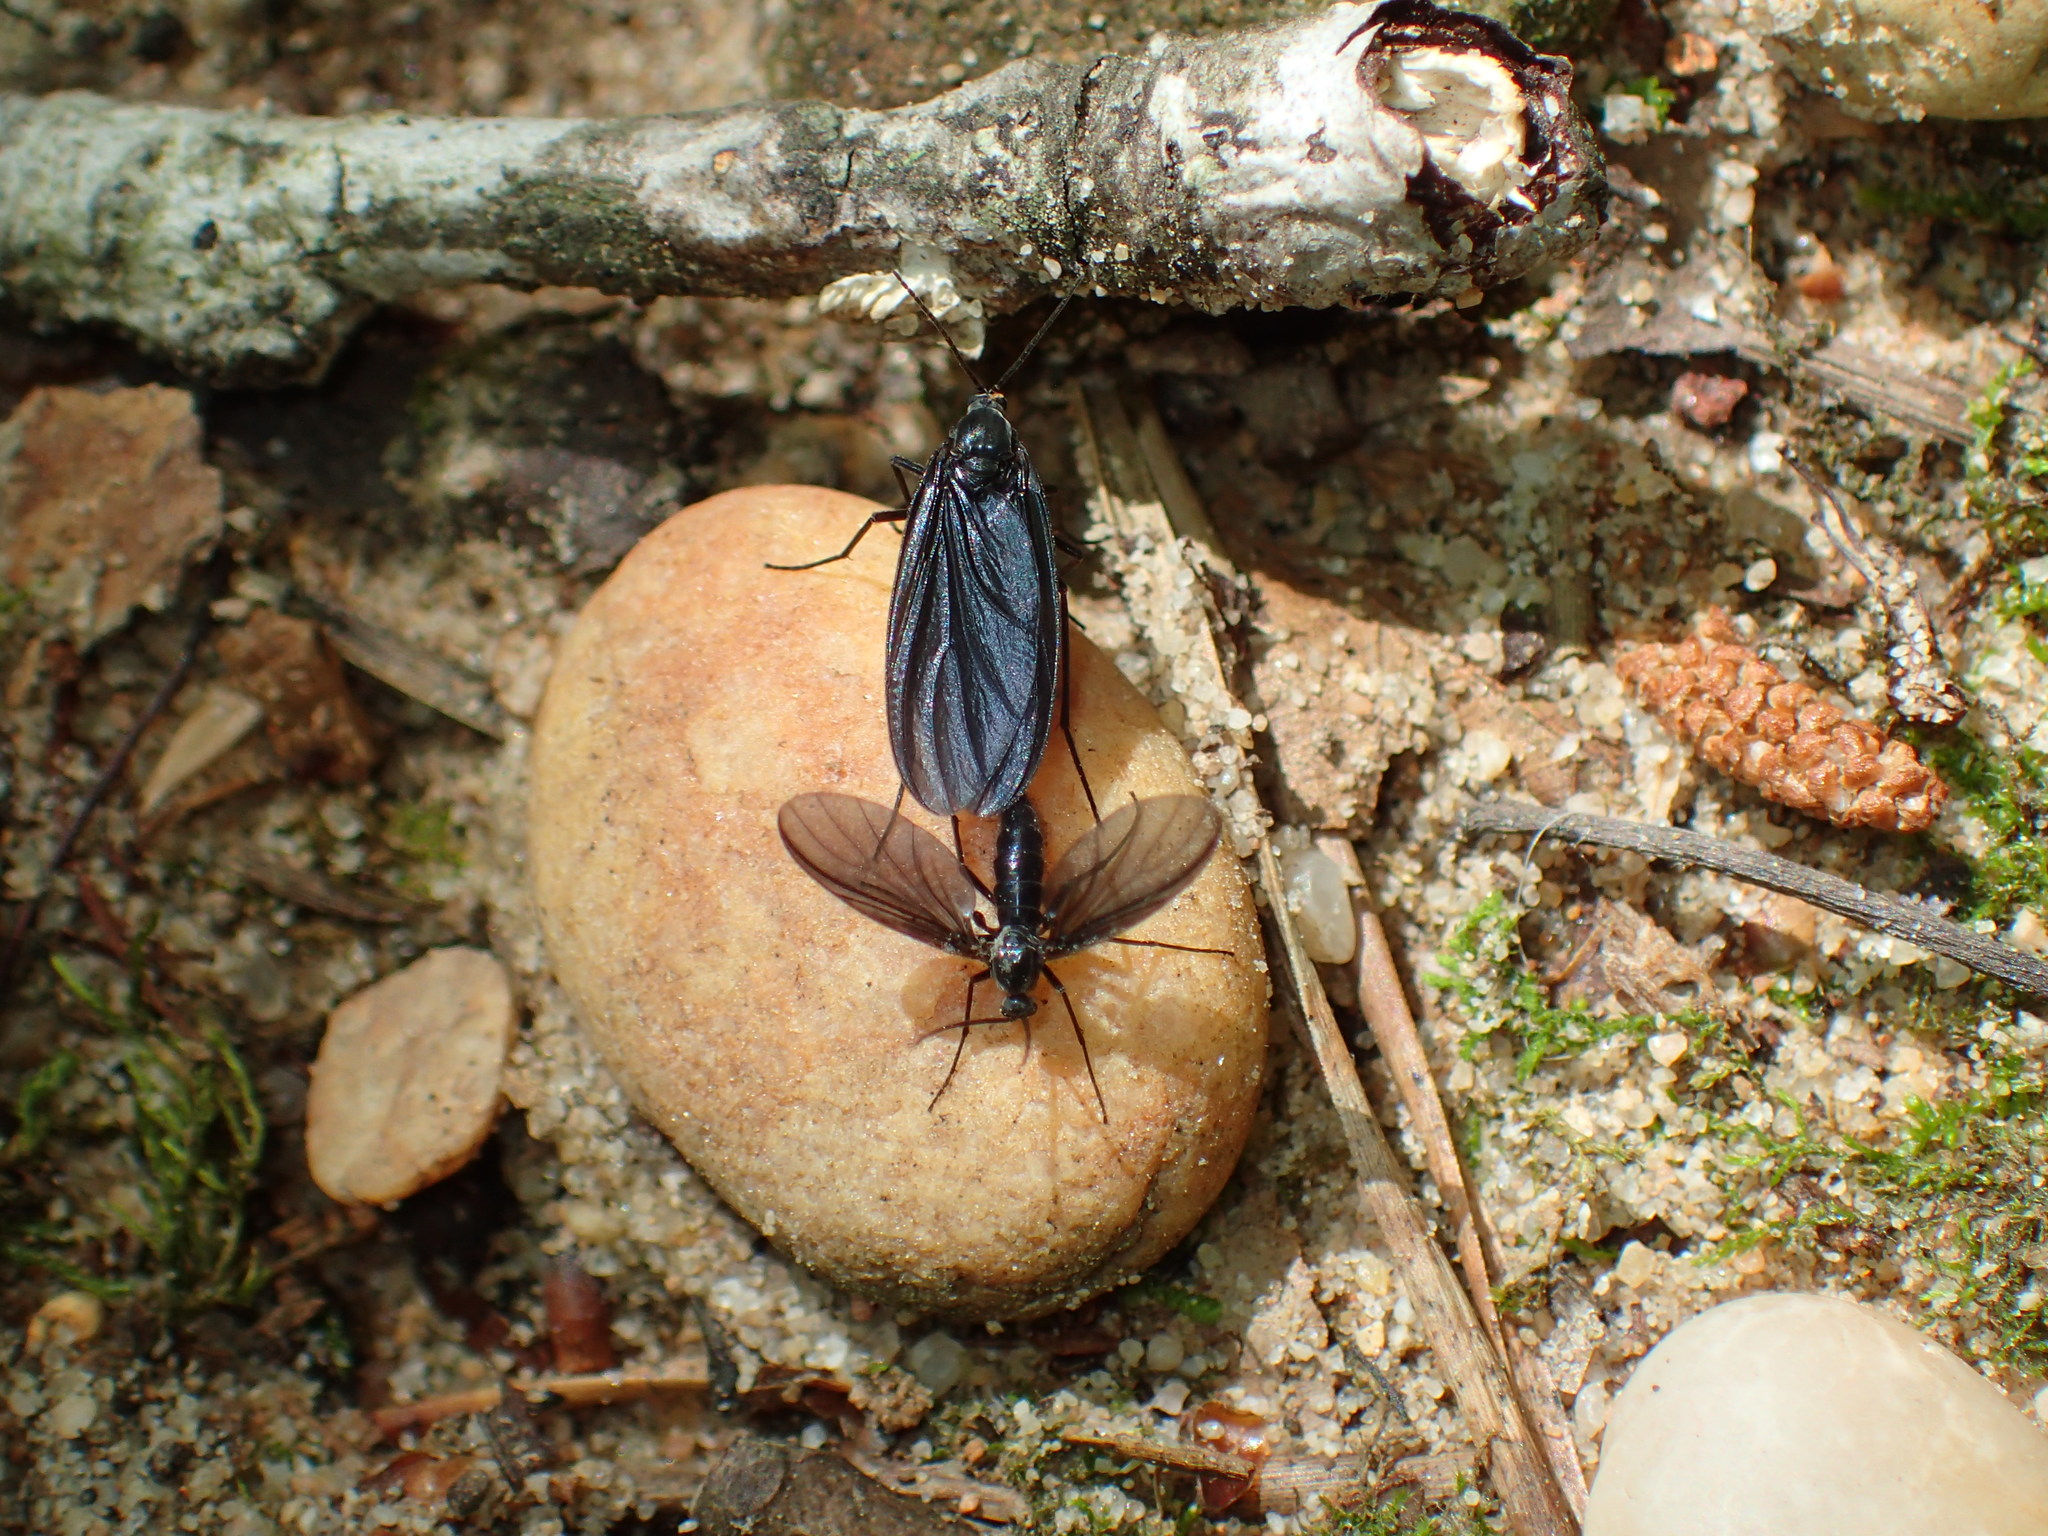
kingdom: Animalia
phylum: Arthropoda
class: Insecta
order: Diptera
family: Sciaridae
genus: Odontosciara
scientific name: Odontosciara nigra
